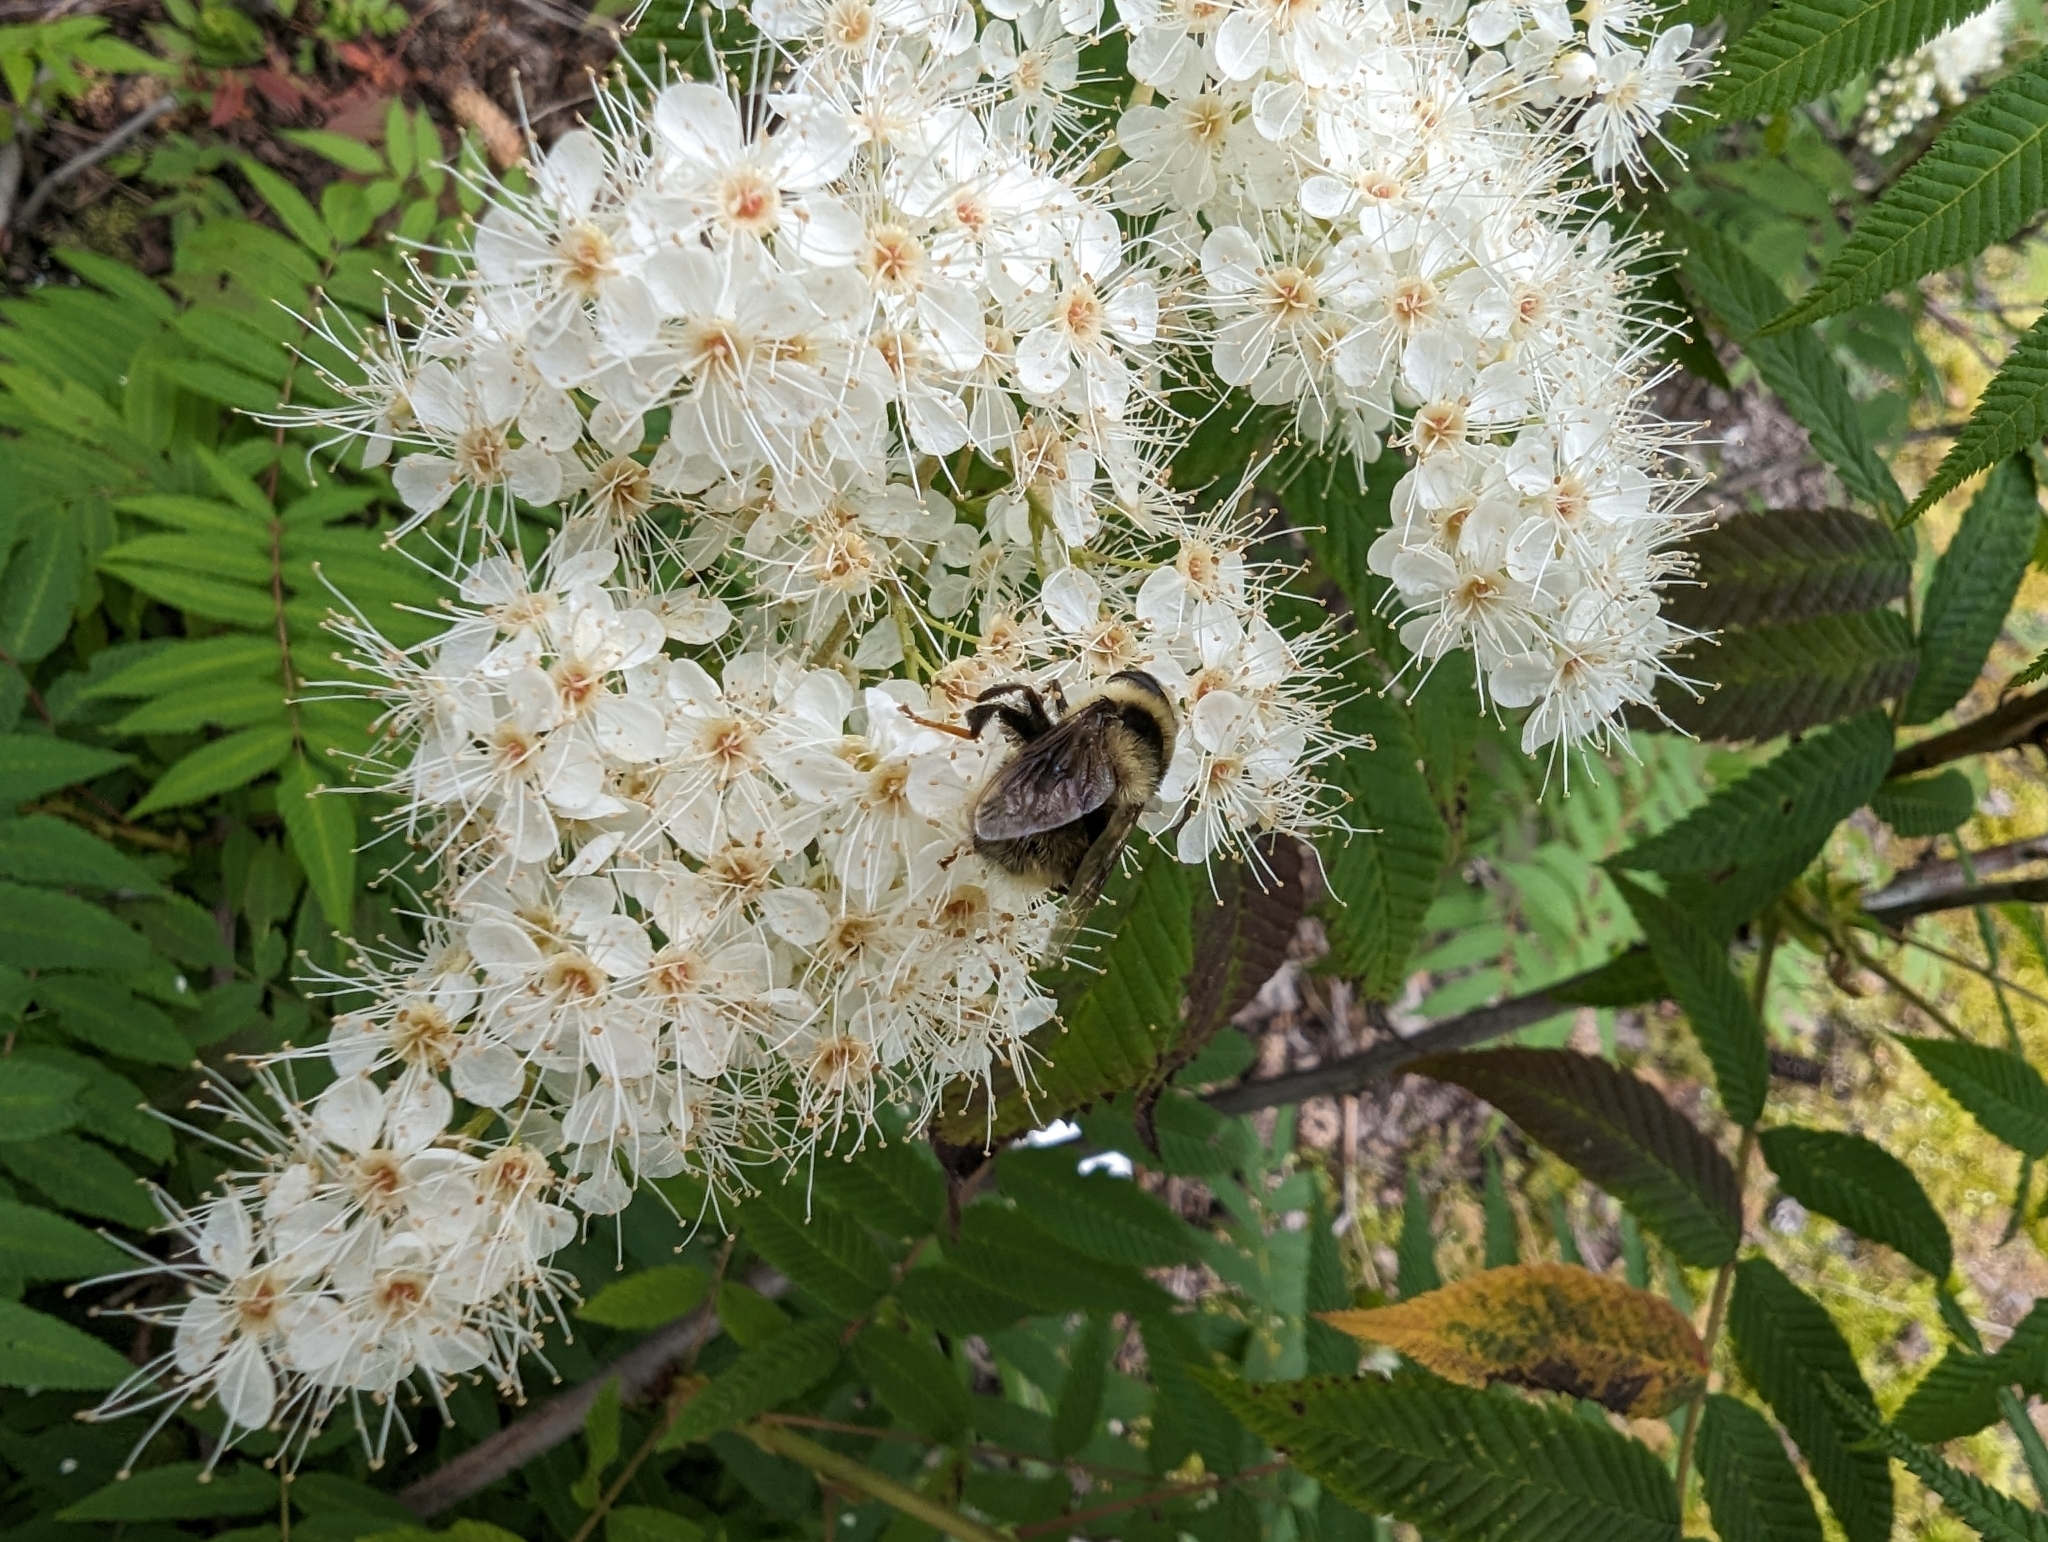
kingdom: Animalia
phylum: Arthropoda
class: Insecta
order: Diptera
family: Syrphidae
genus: Eristalis
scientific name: Eristalis flavipes
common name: Orange-legged drone fly
